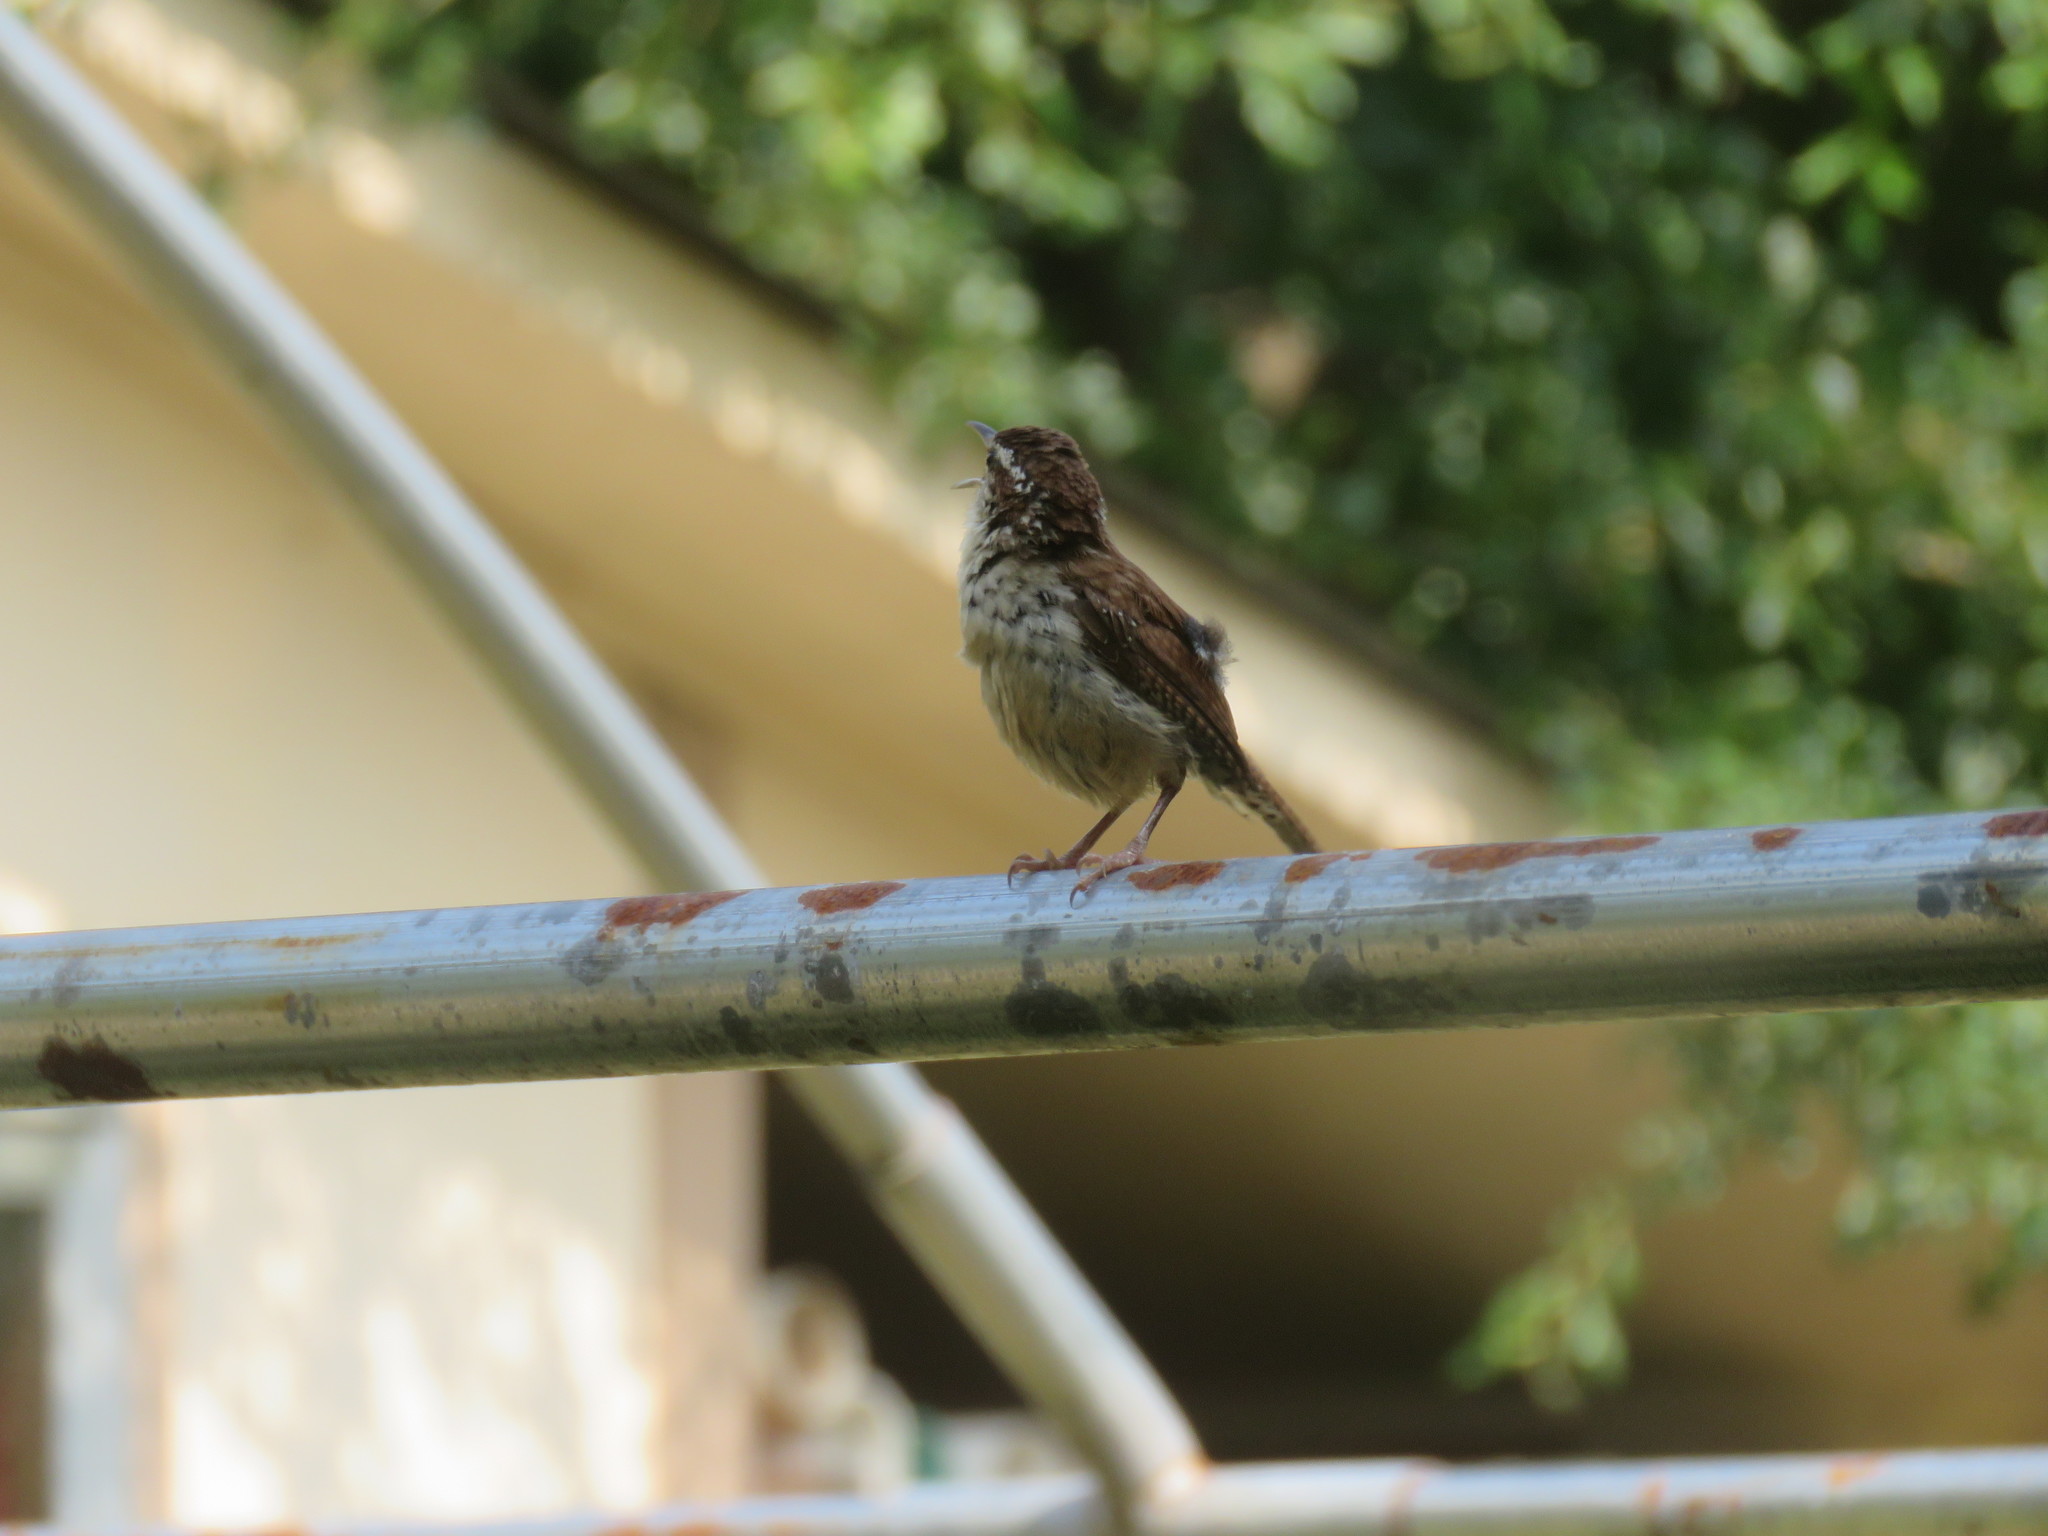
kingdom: Animalia
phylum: Chordata
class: Aves
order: Passeriformes
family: Troglodytidae
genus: Thryothorus
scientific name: Thryothorus ludovicianus
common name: Carolina wren
